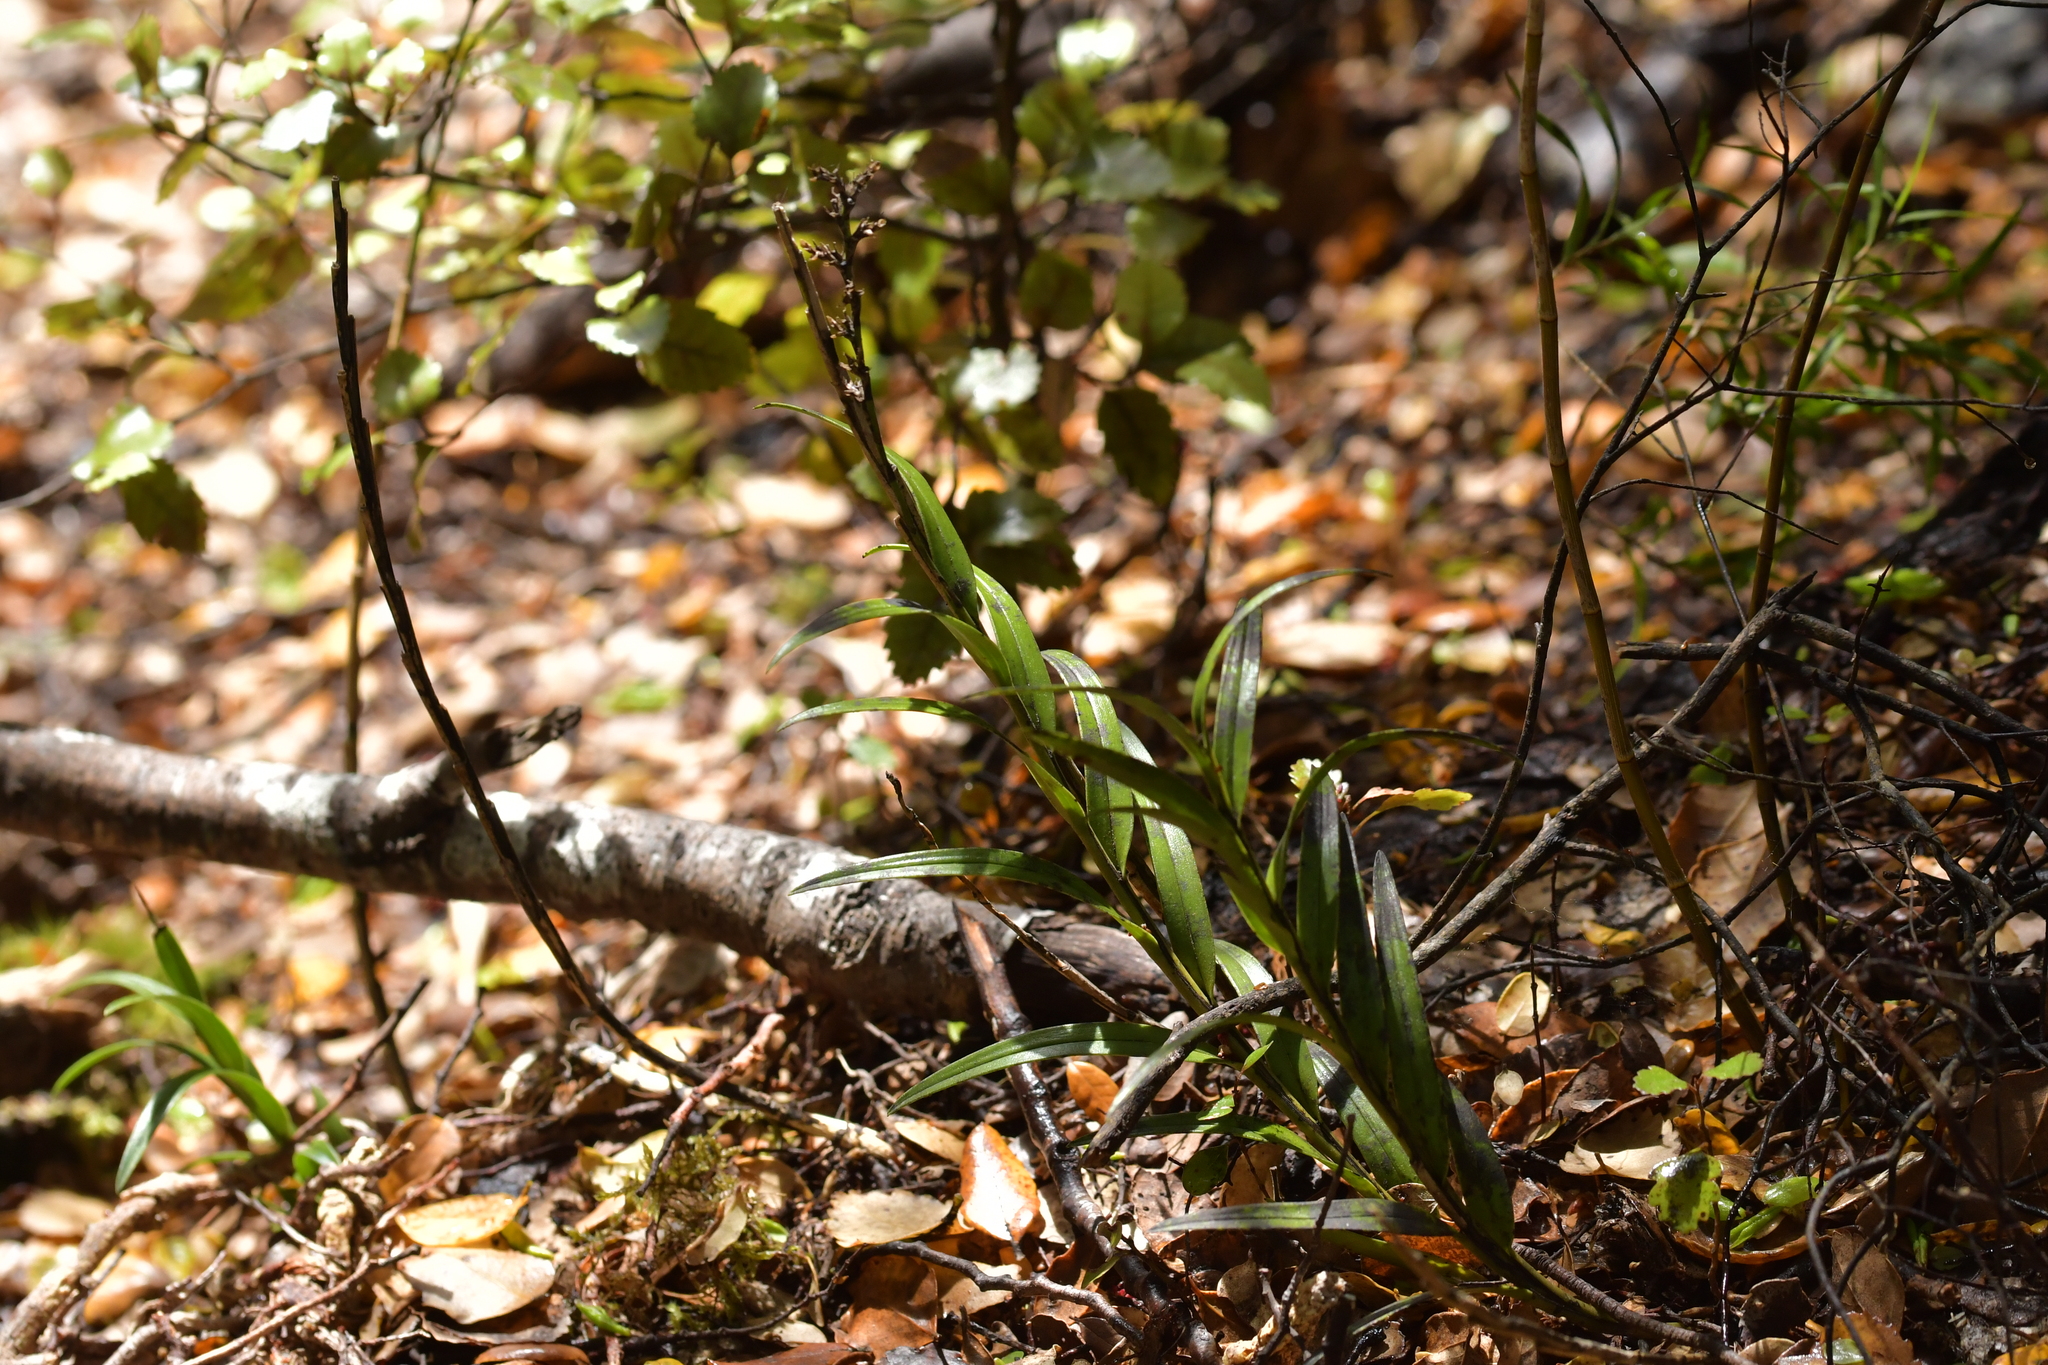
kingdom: Plantae
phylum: Tracheophyta
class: Liliopsida
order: Asparagales
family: Orchidaceae
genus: Earina
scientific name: Earina autumnalis
